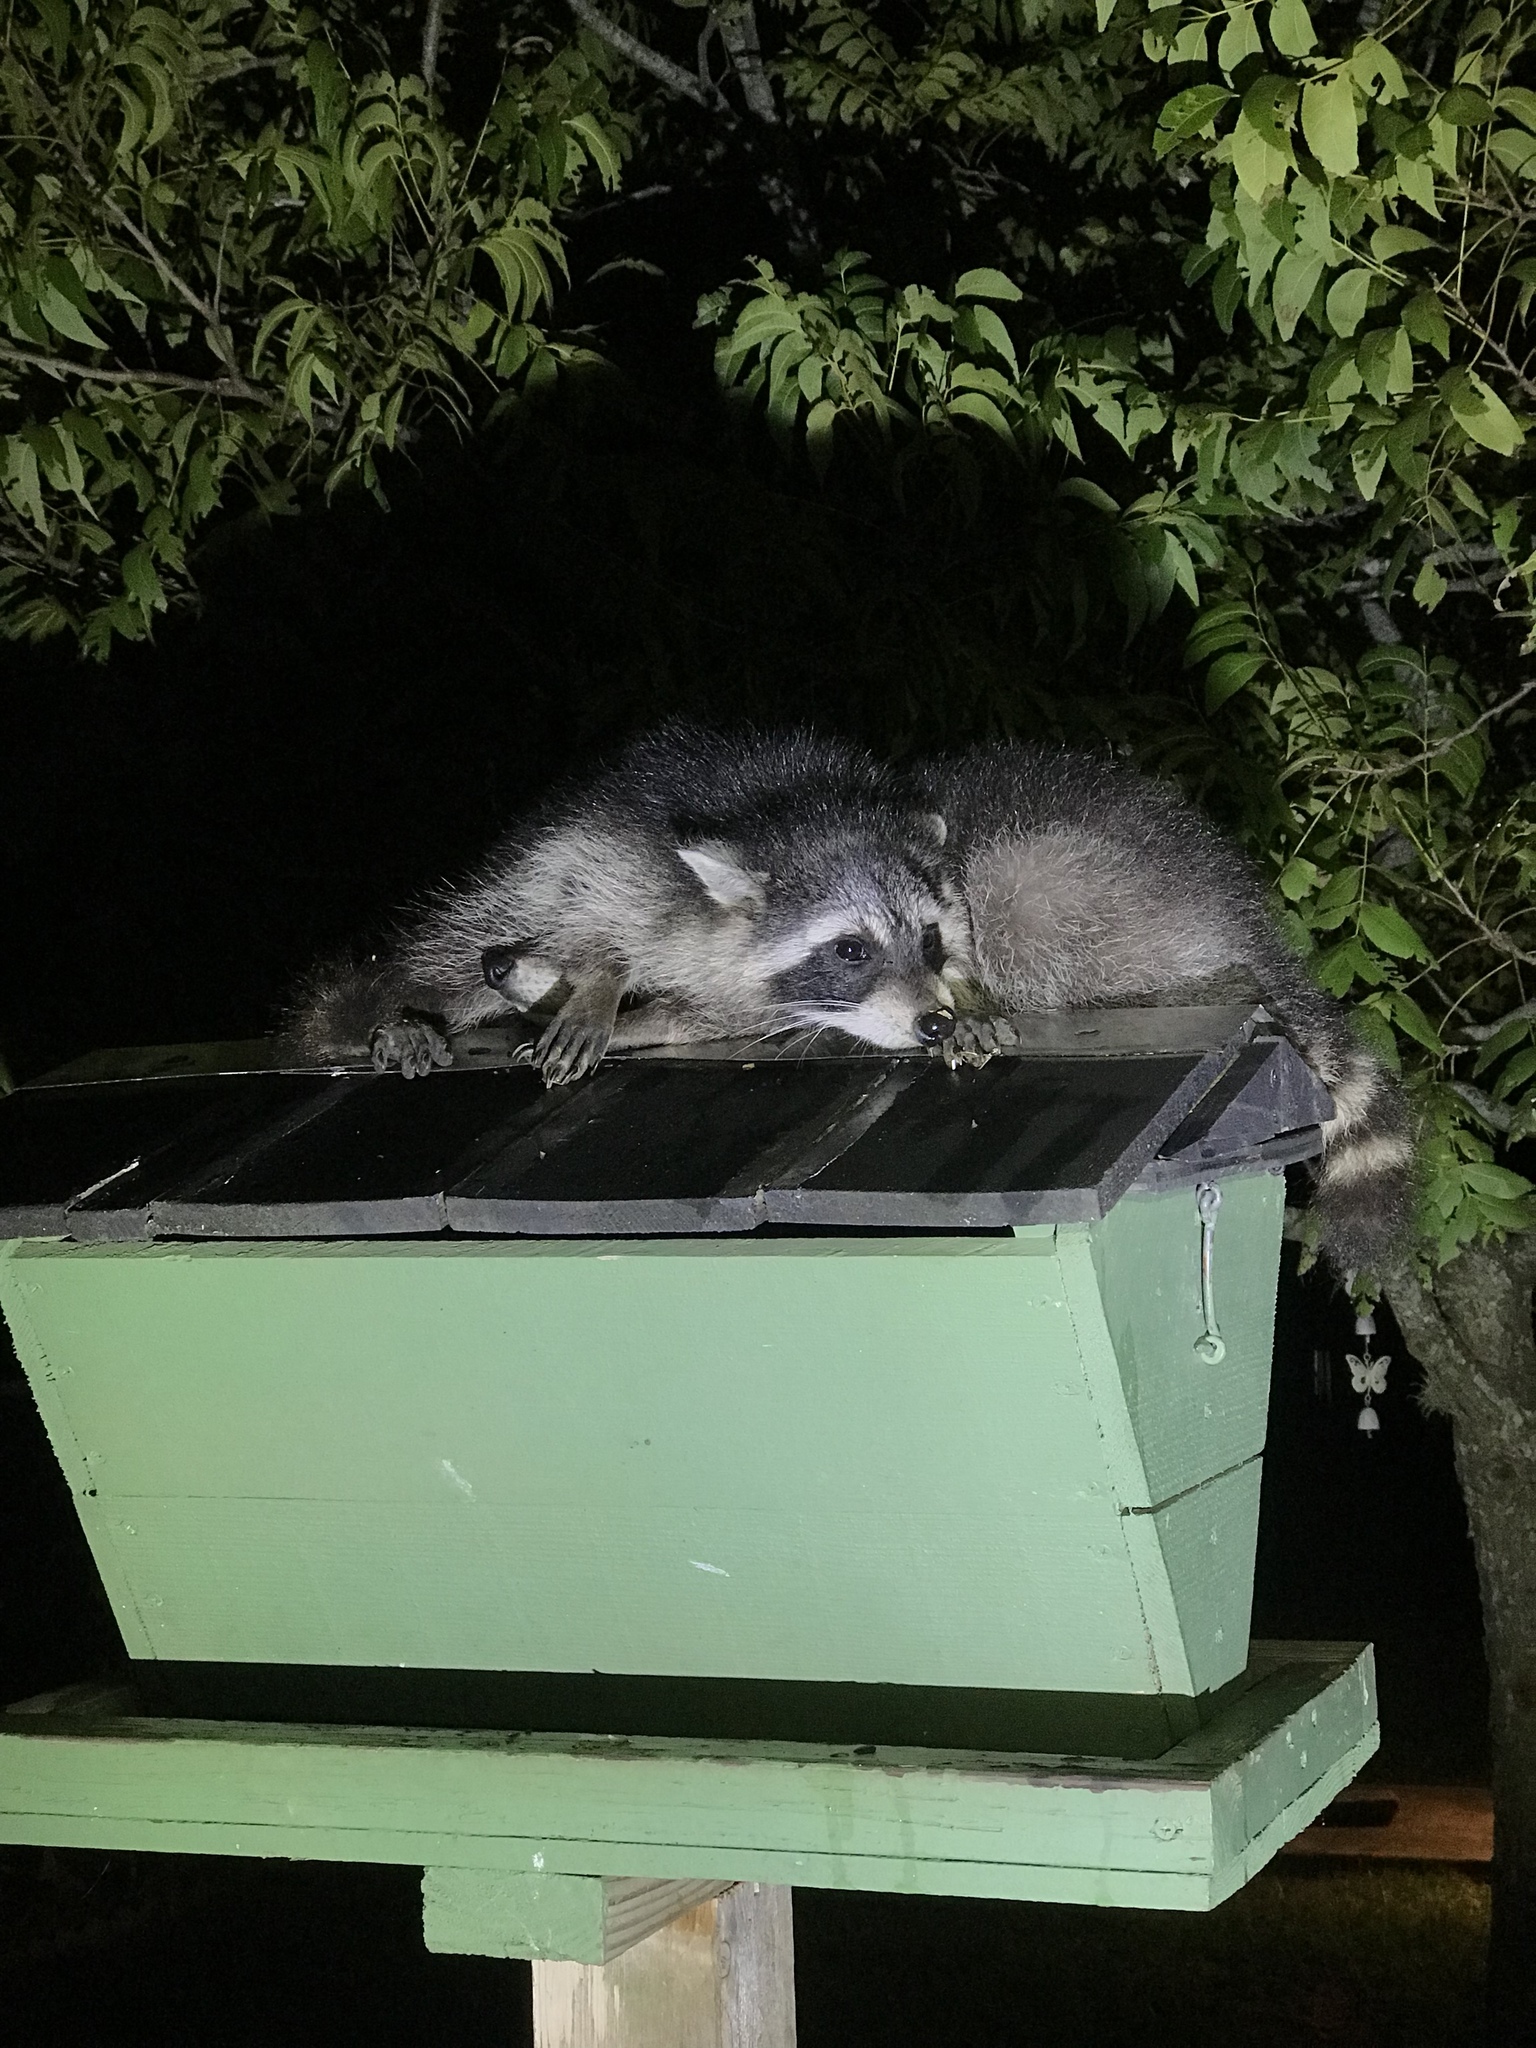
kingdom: Animalia
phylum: Chordata
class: Mammalia
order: Carnivora
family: Procyonidae
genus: Procyon
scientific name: Procyon lotor
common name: Raccoon
